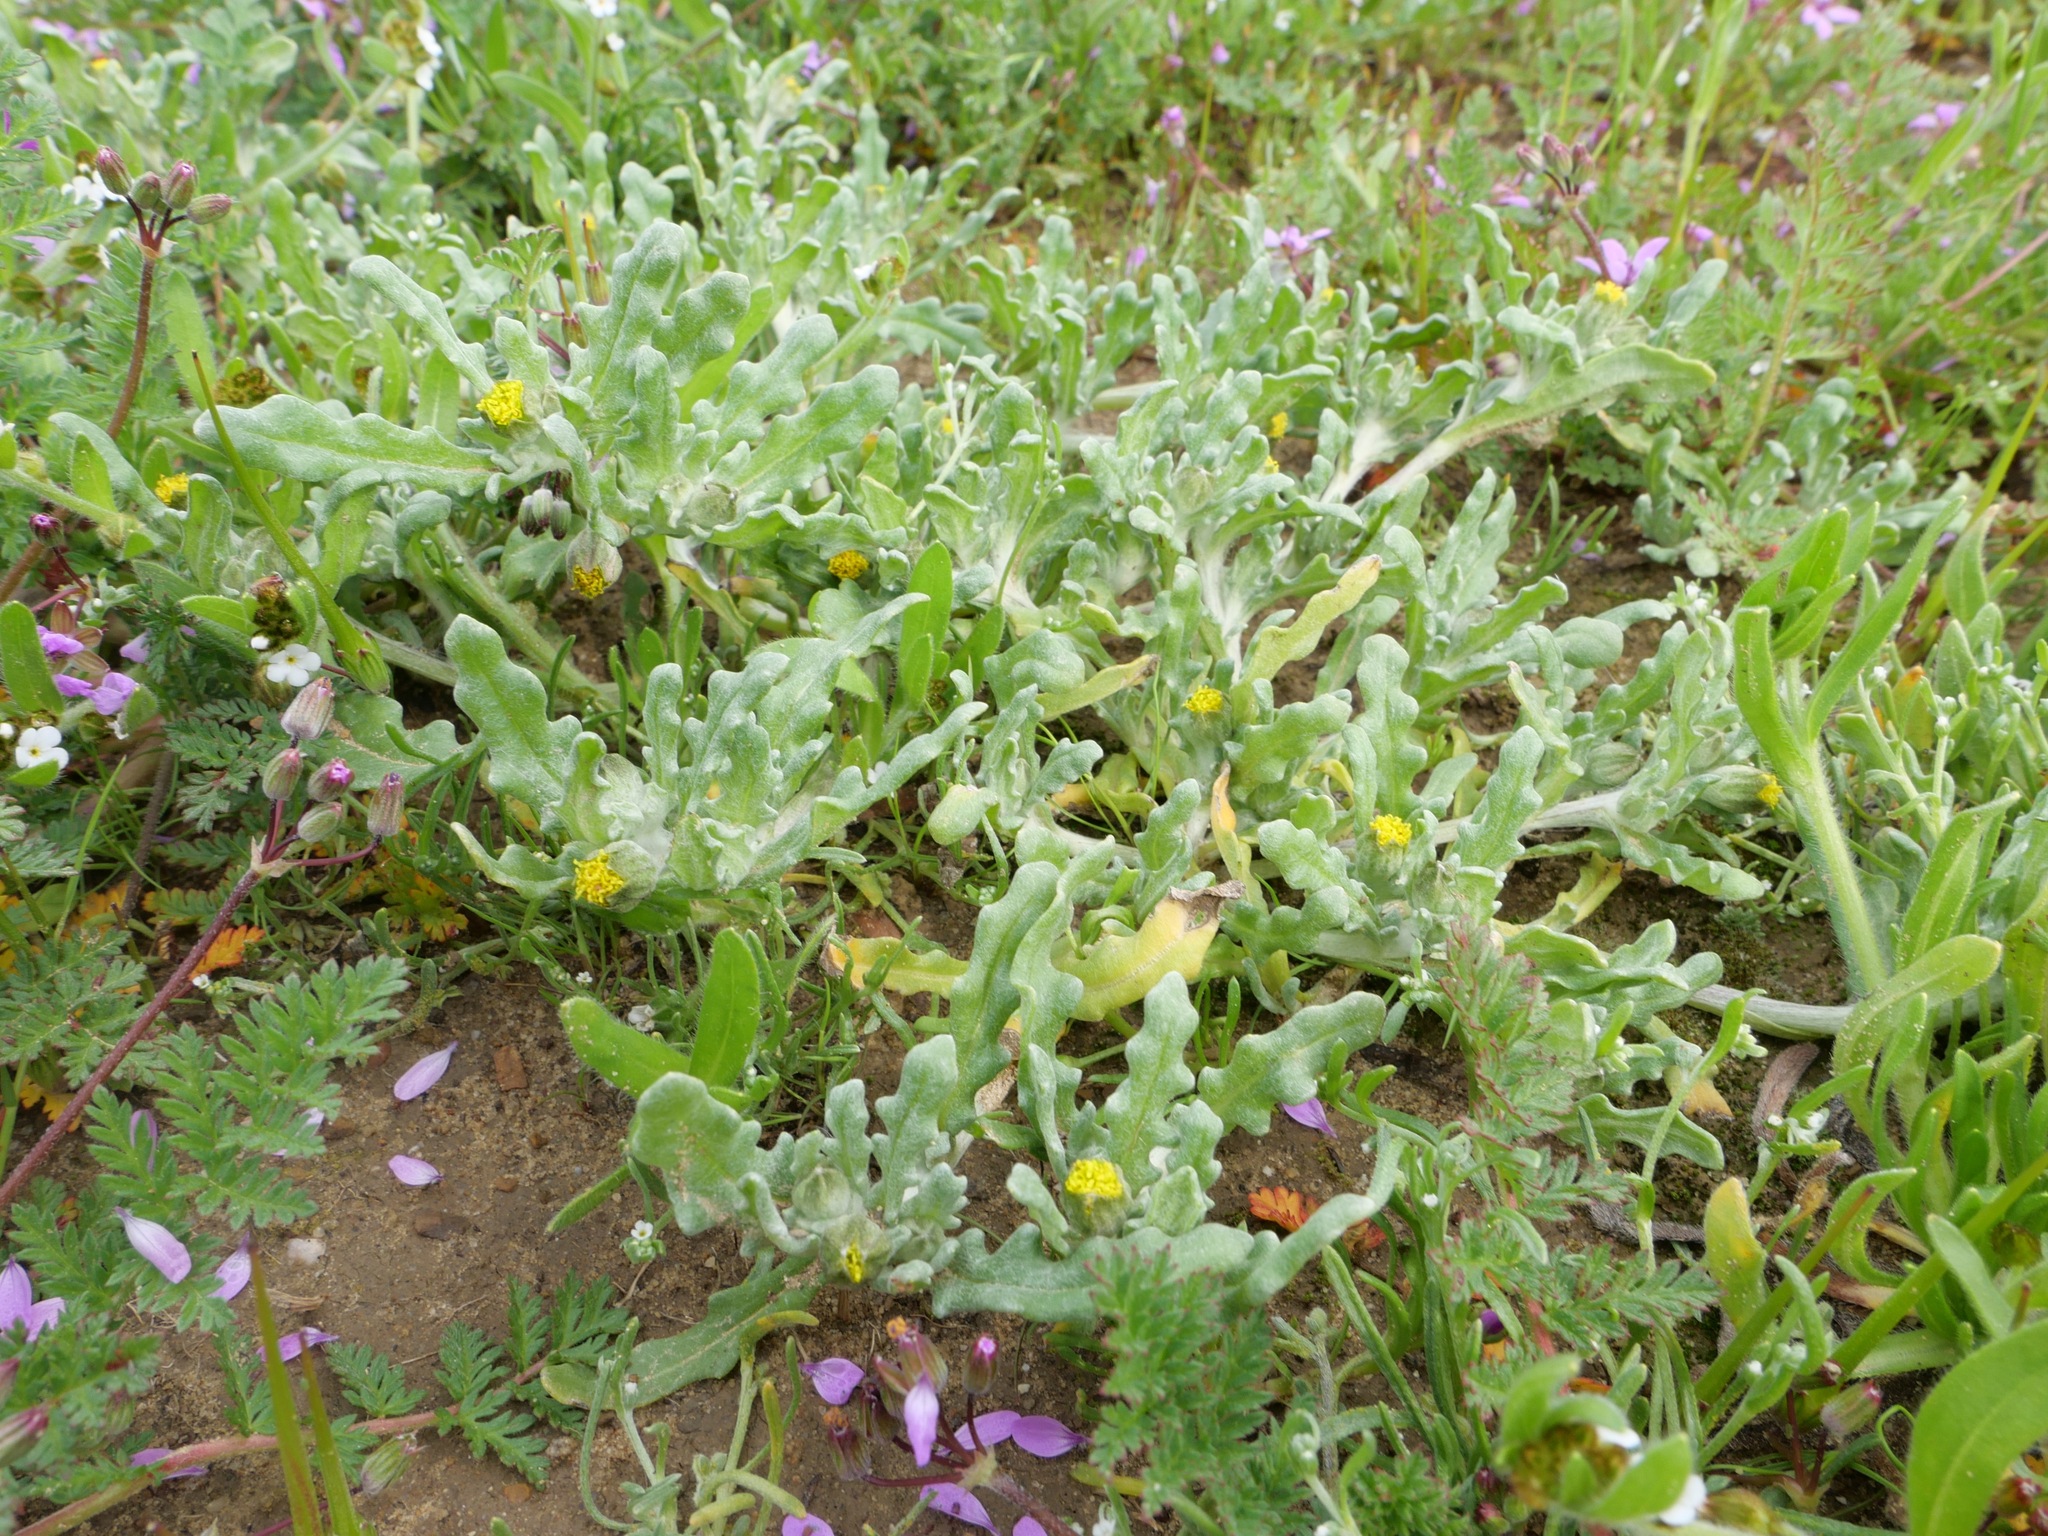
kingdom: Plantae
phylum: Tracheophyta
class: Magnoliopsida
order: Asterales
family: Asteraceae
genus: Monolopia
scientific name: Monolopia congdonii
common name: San joaquin woolly-threads
